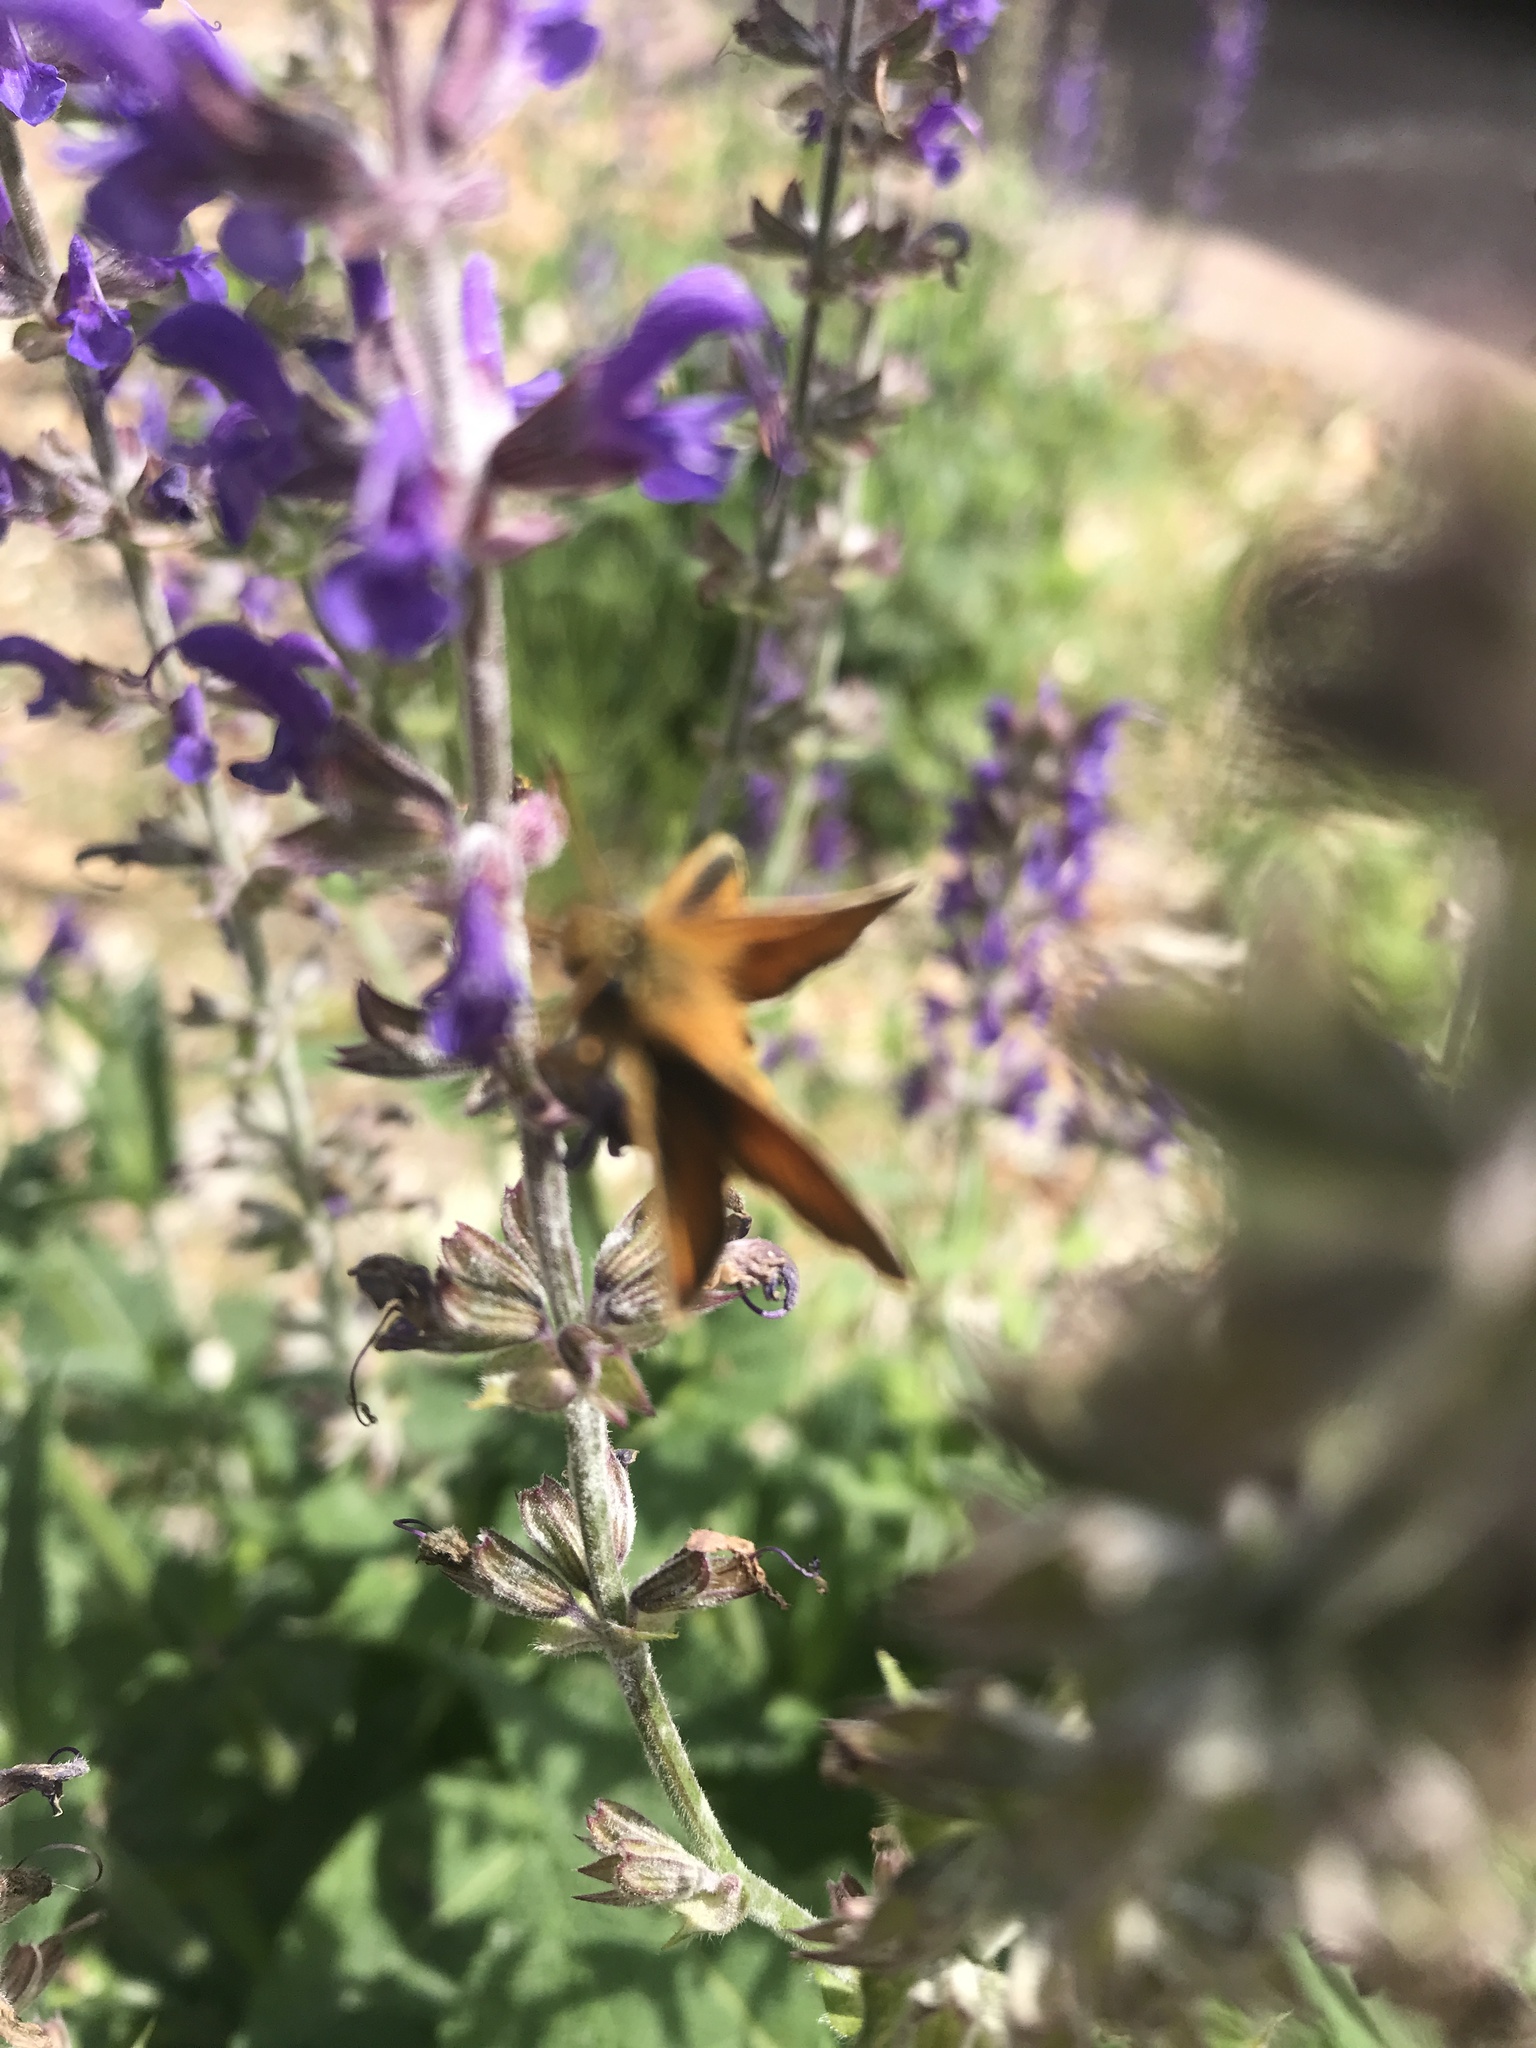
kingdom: Animalia
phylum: Arthropoda
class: Insecta
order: Lepidoptera
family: Hesperiidae
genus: Thymelicus
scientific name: Thymelicus lineola
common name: Essex skipper
